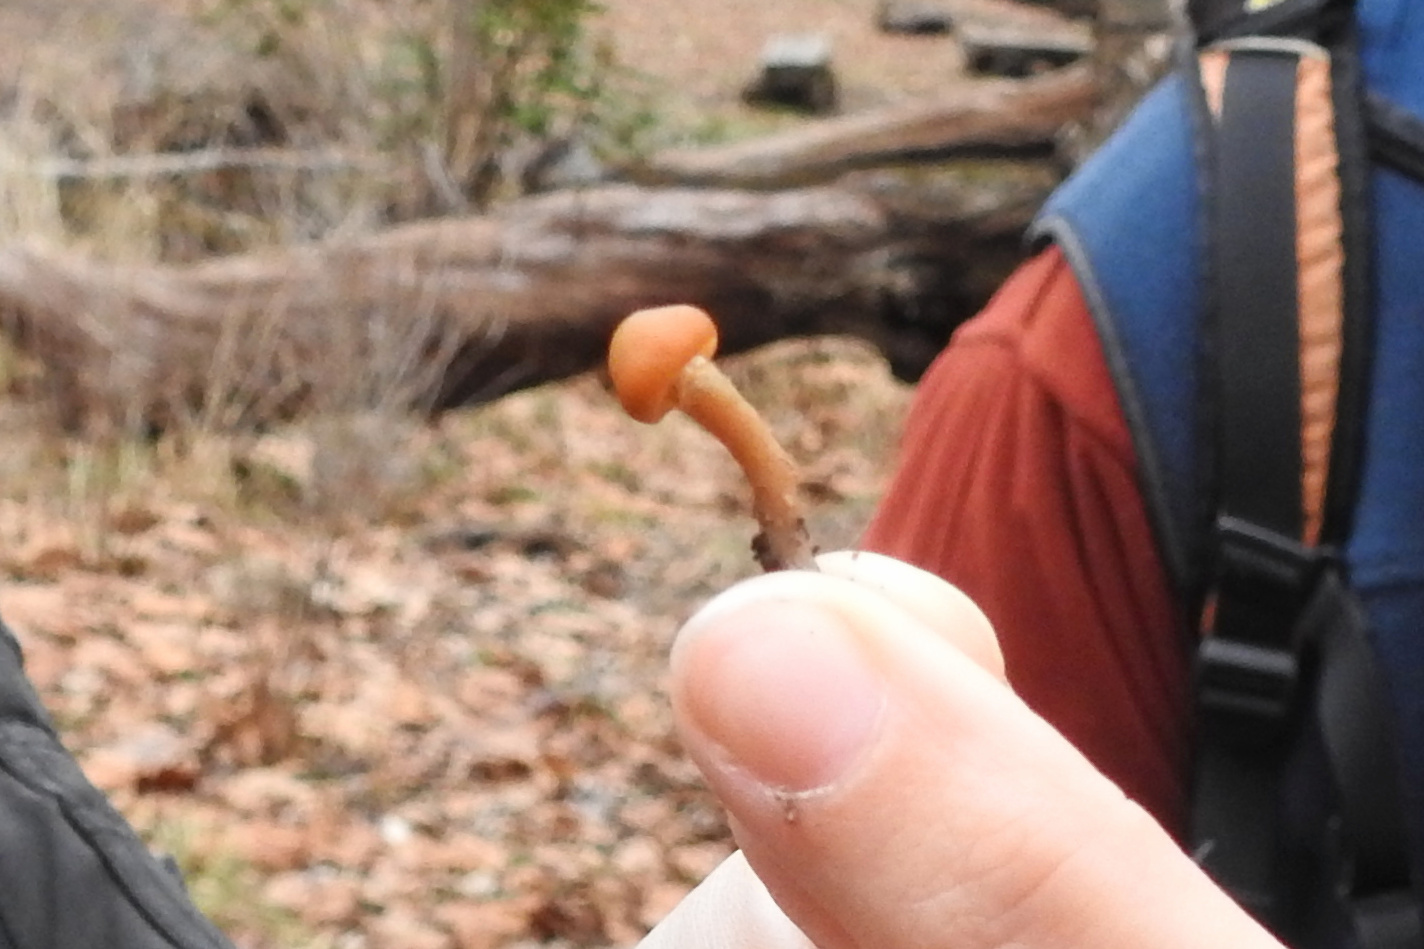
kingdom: Fungi
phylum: Basidiomycota
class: Agaricomycetes
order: Agaricales
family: Hymenogastraceae
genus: Galerina
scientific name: Galerina marginata
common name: Funeral bell
